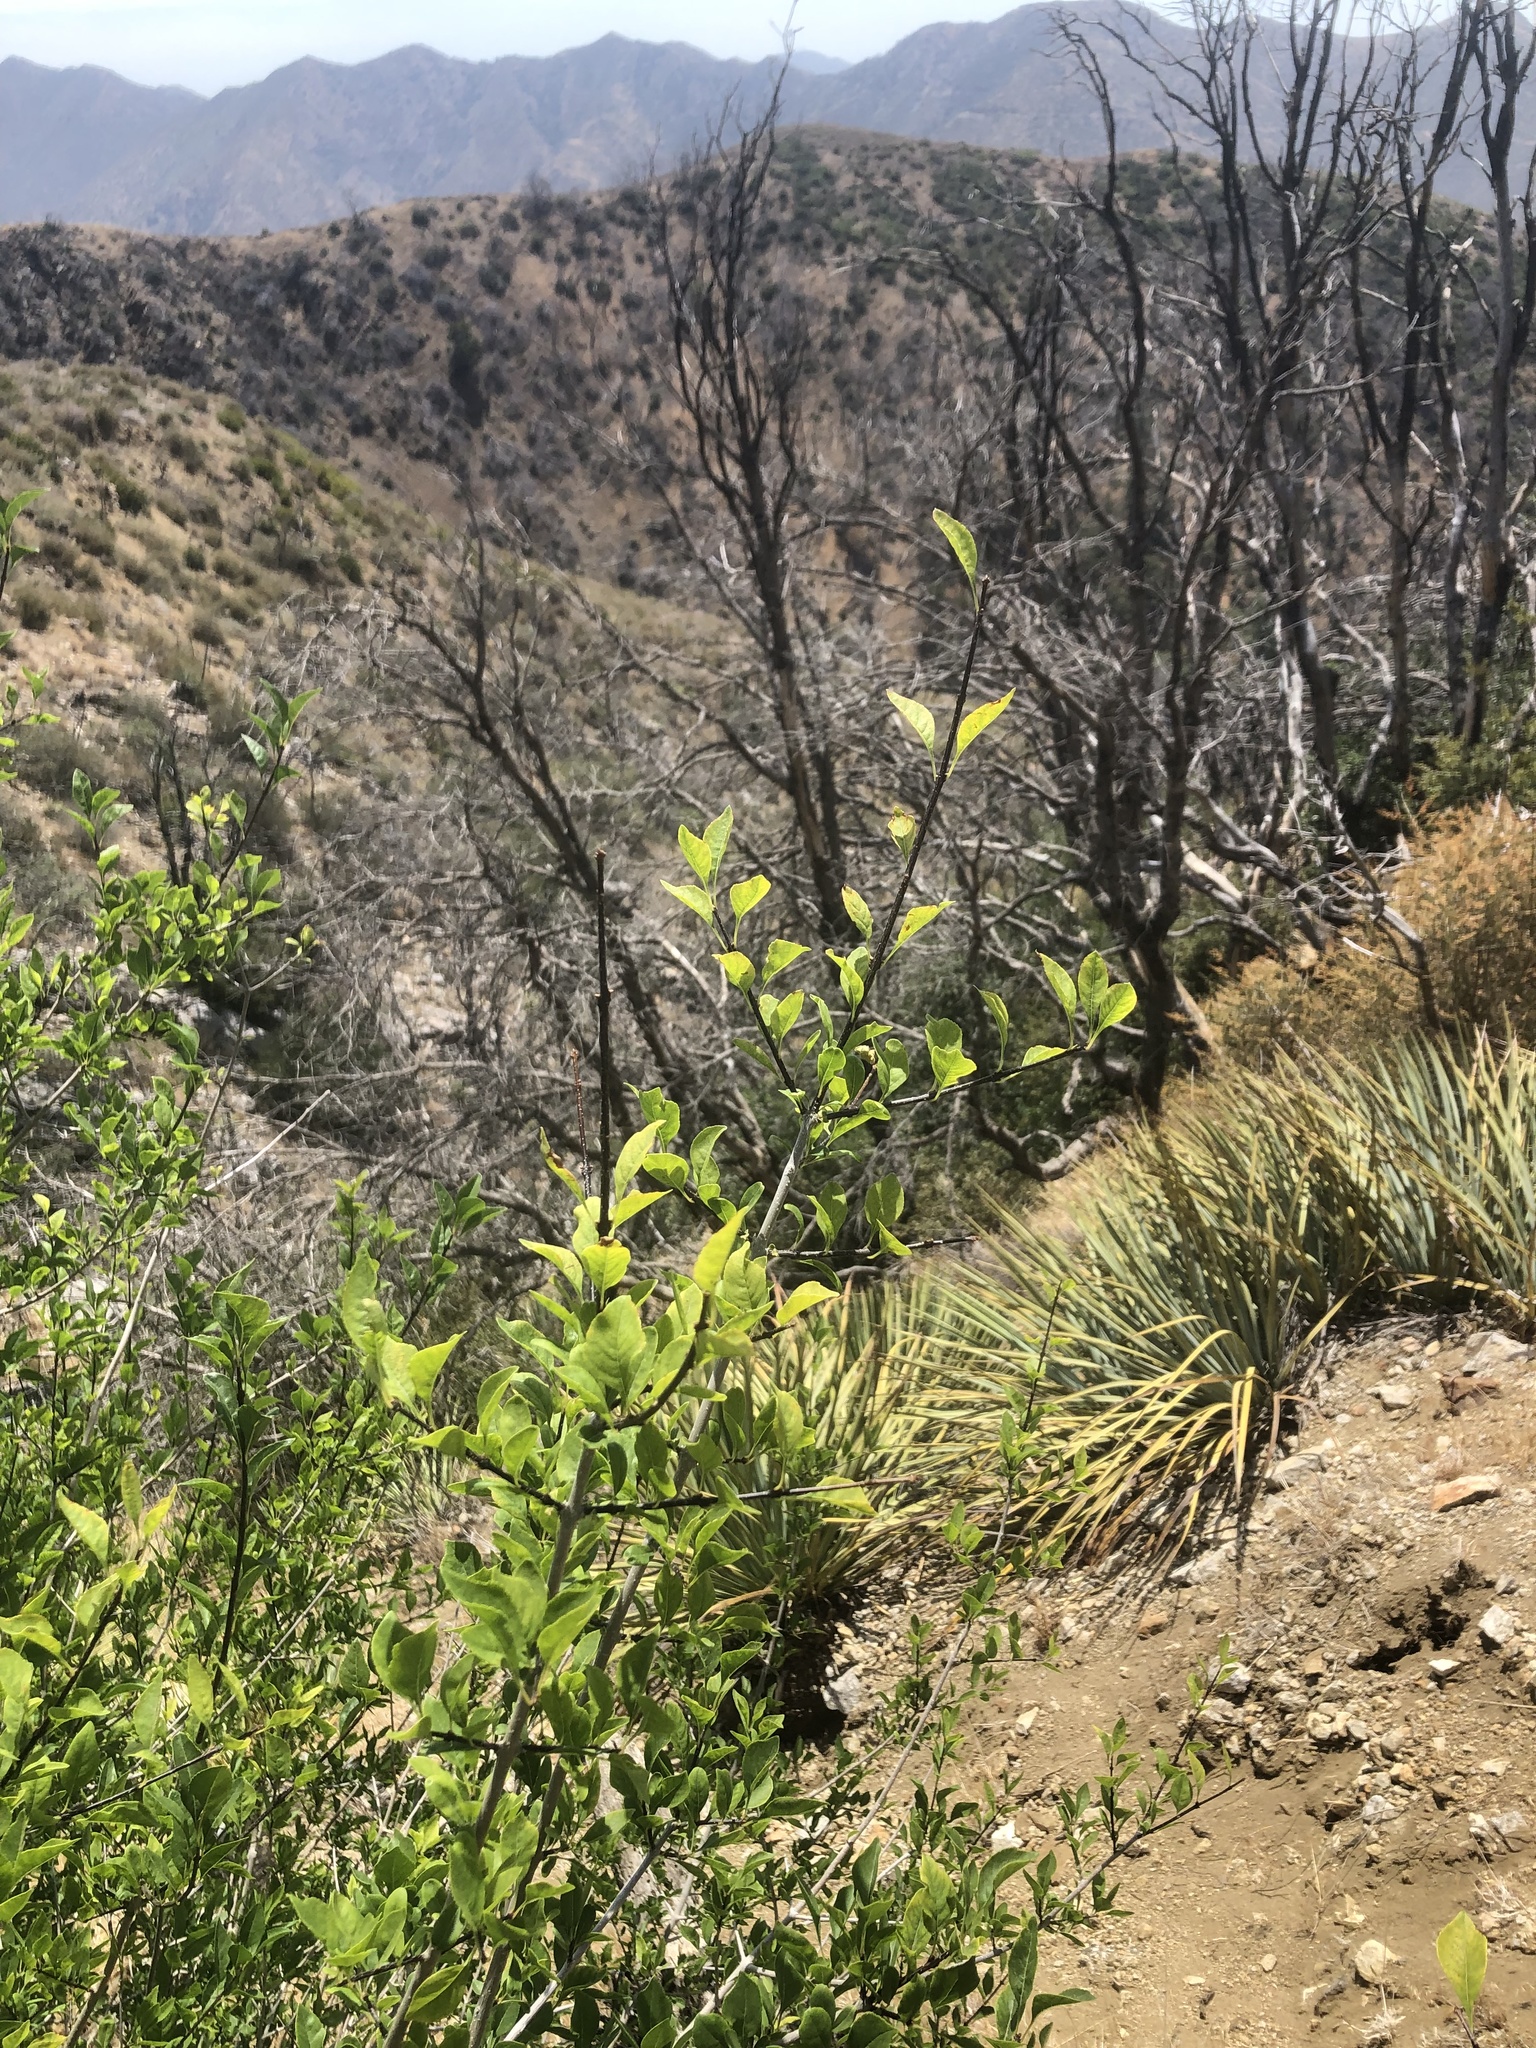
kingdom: Plantae
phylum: Tracheophyta
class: Magnoliopsida
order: Lamiales
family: Oleaceae
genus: Forestiera
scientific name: Forestiera pubescens
